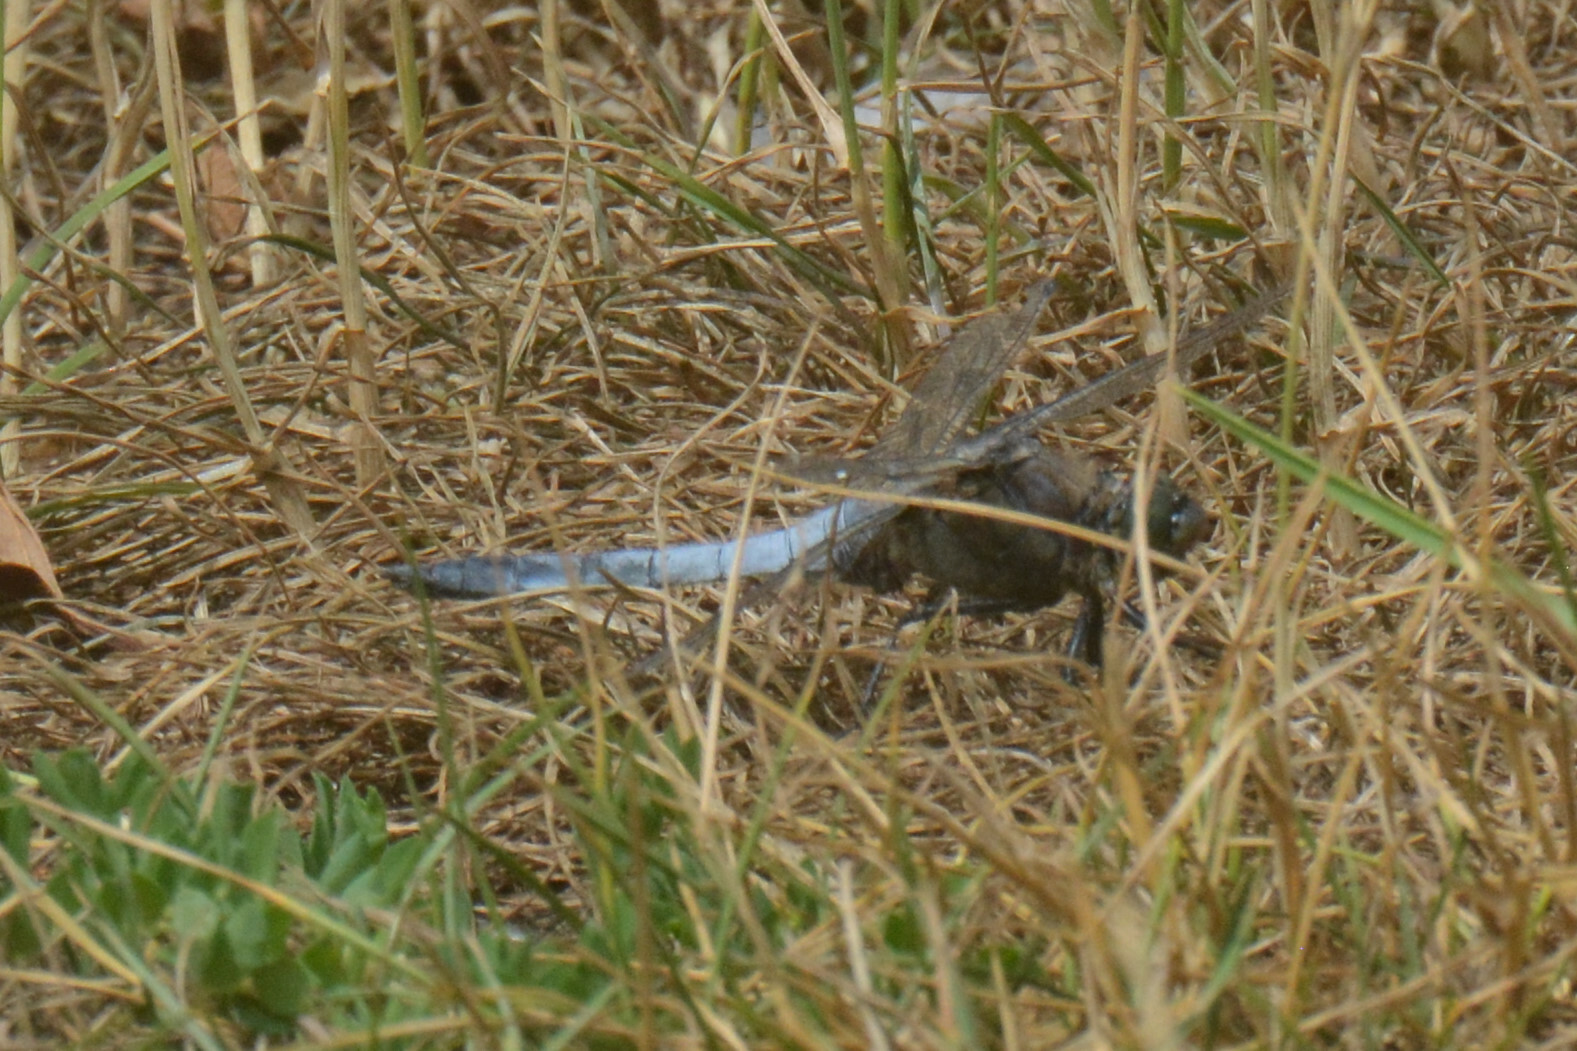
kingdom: Animalia
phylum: Arthropoda
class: Insecta
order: Odonata
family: Libellulidae
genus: Orthetrum
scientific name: Orthetrum cancellatum
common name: Black-tailed skimmer
